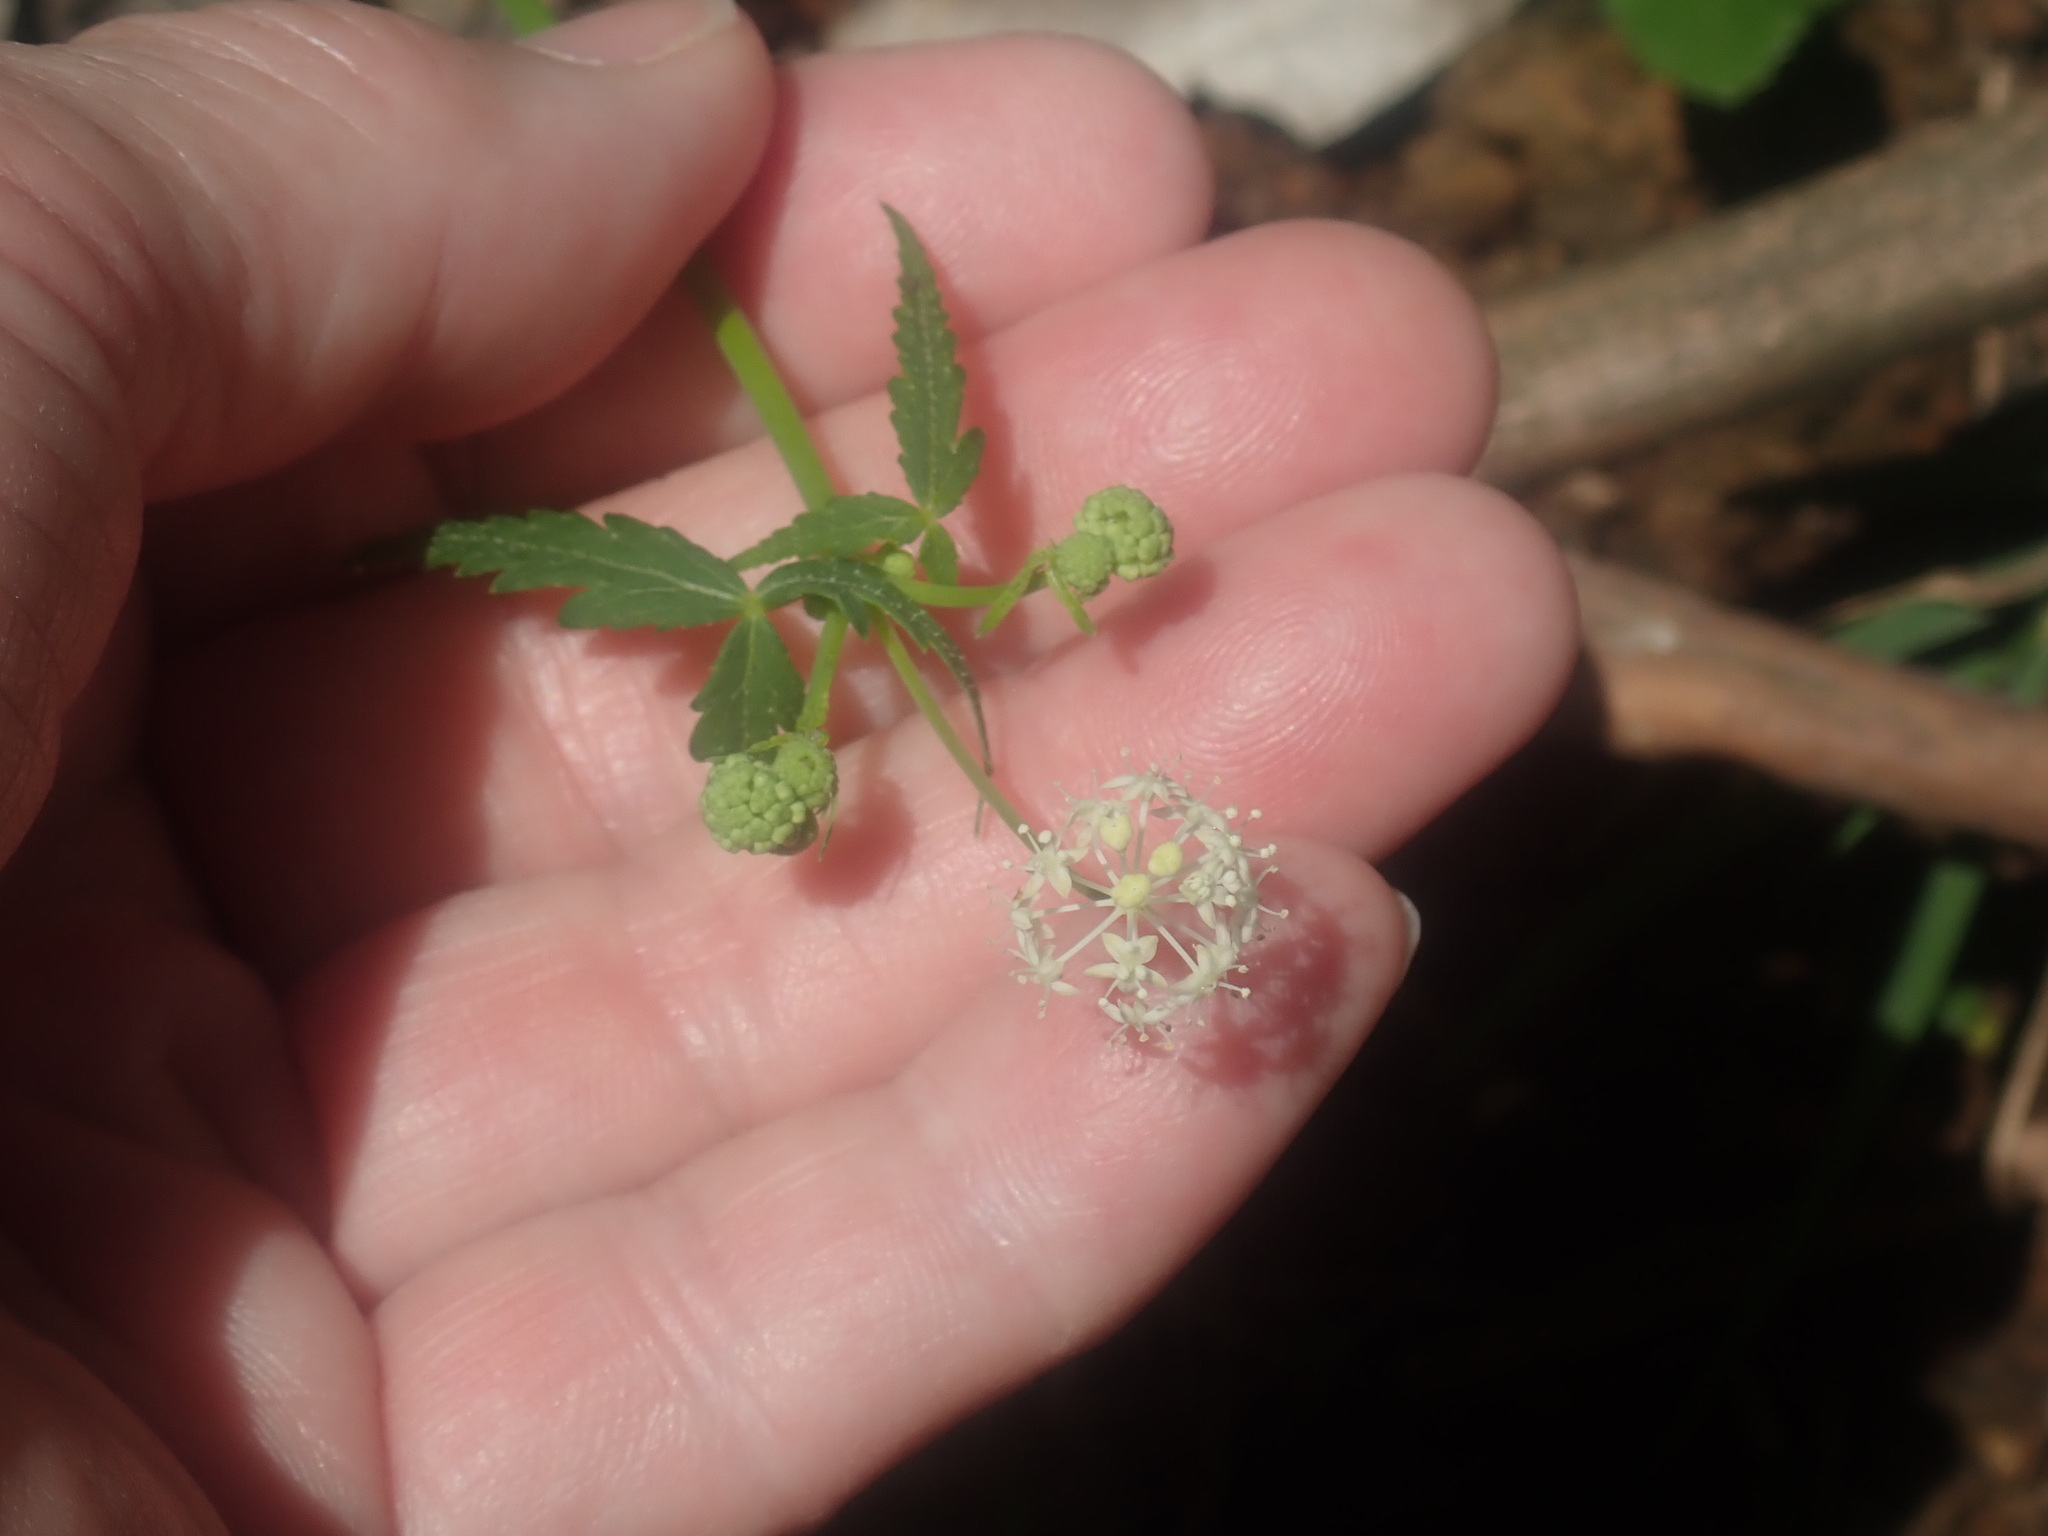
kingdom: Plantae
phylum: Tracheophyta
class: Magnoliopsida
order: Apiales
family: Araliaceae
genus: Hydrocotyle
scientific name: Hydrocotyle geraniifolia
